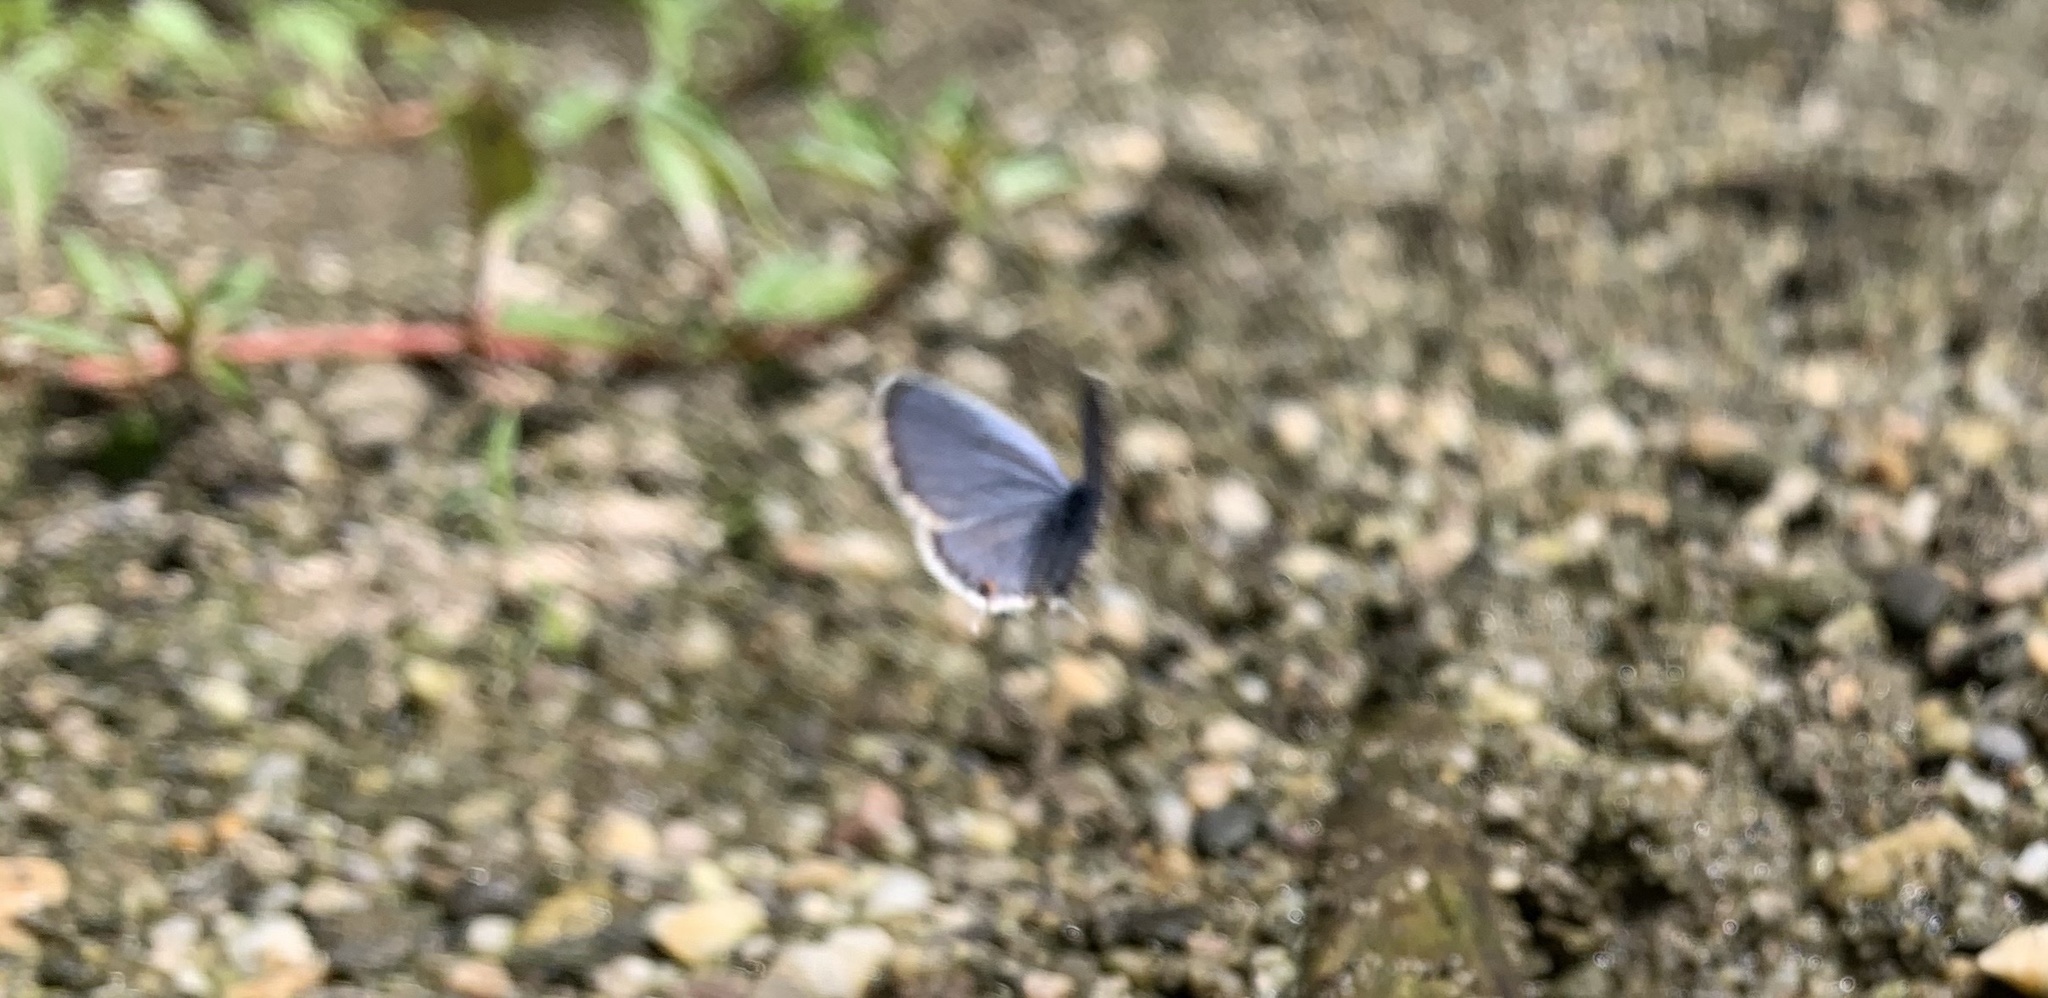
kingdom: Animalia
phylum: Arthropoda
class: Insecta
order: Lepidoptera
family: Lycaenidae
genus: Elkalyce
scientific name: Elkalyce comyntas
